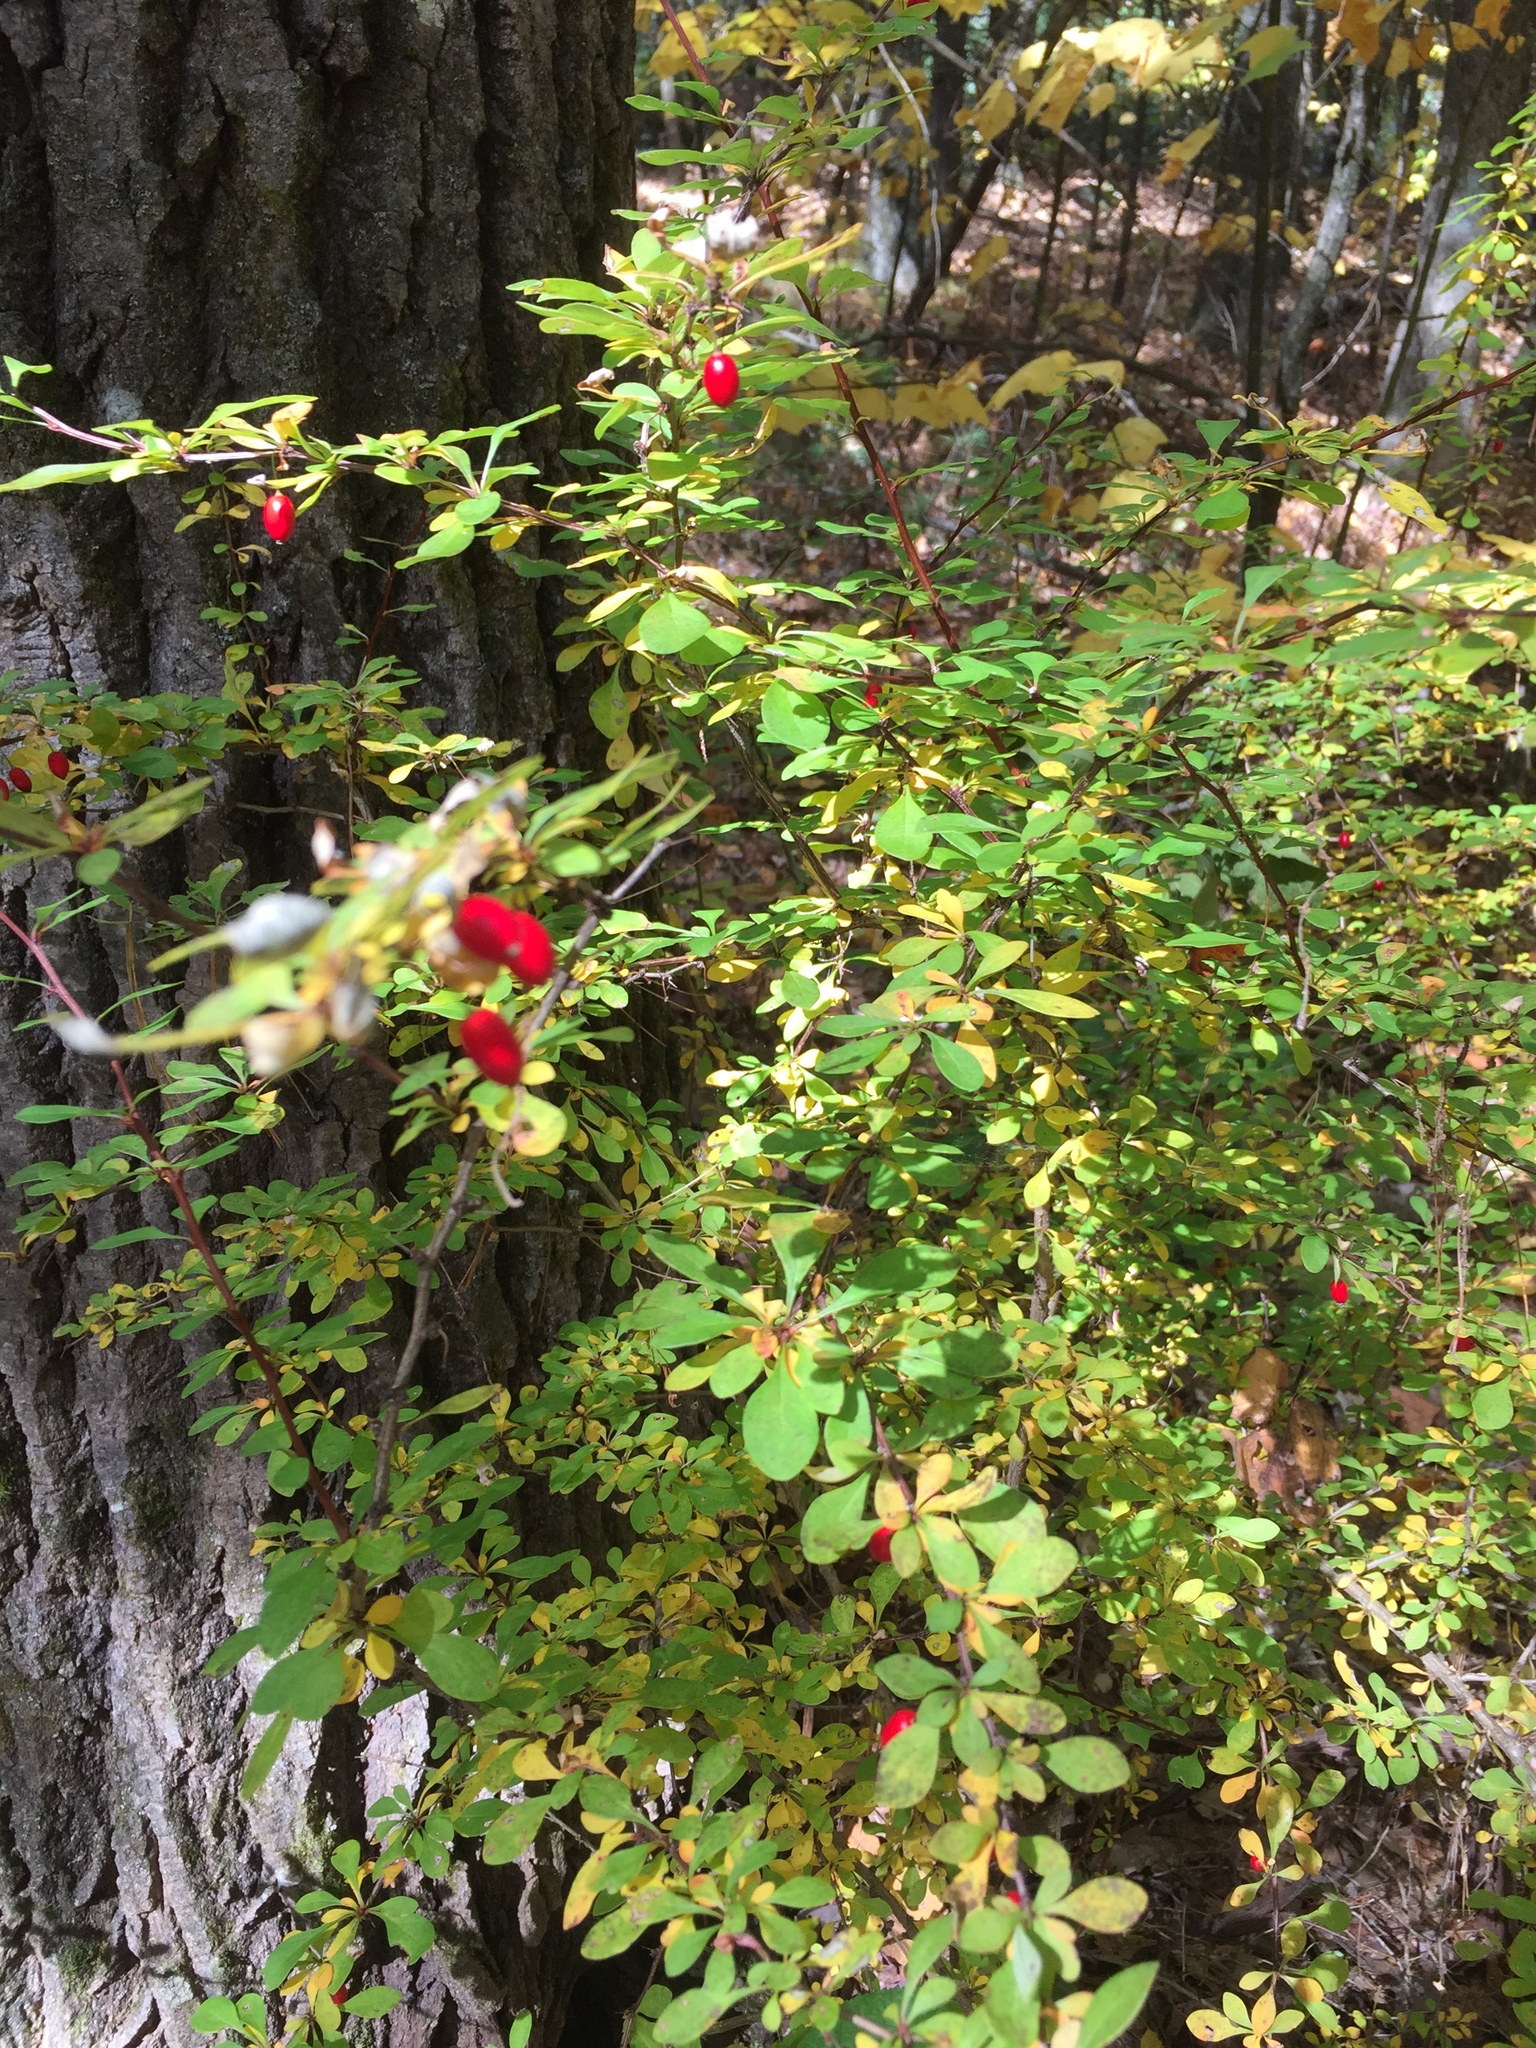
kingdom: Plantae
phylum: Tracheophyta
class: Magnoliopsida
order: Ranunculales
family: Berberidaceae
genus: Berberis
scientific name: Berberis thunbergii
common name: Japanese barberry
